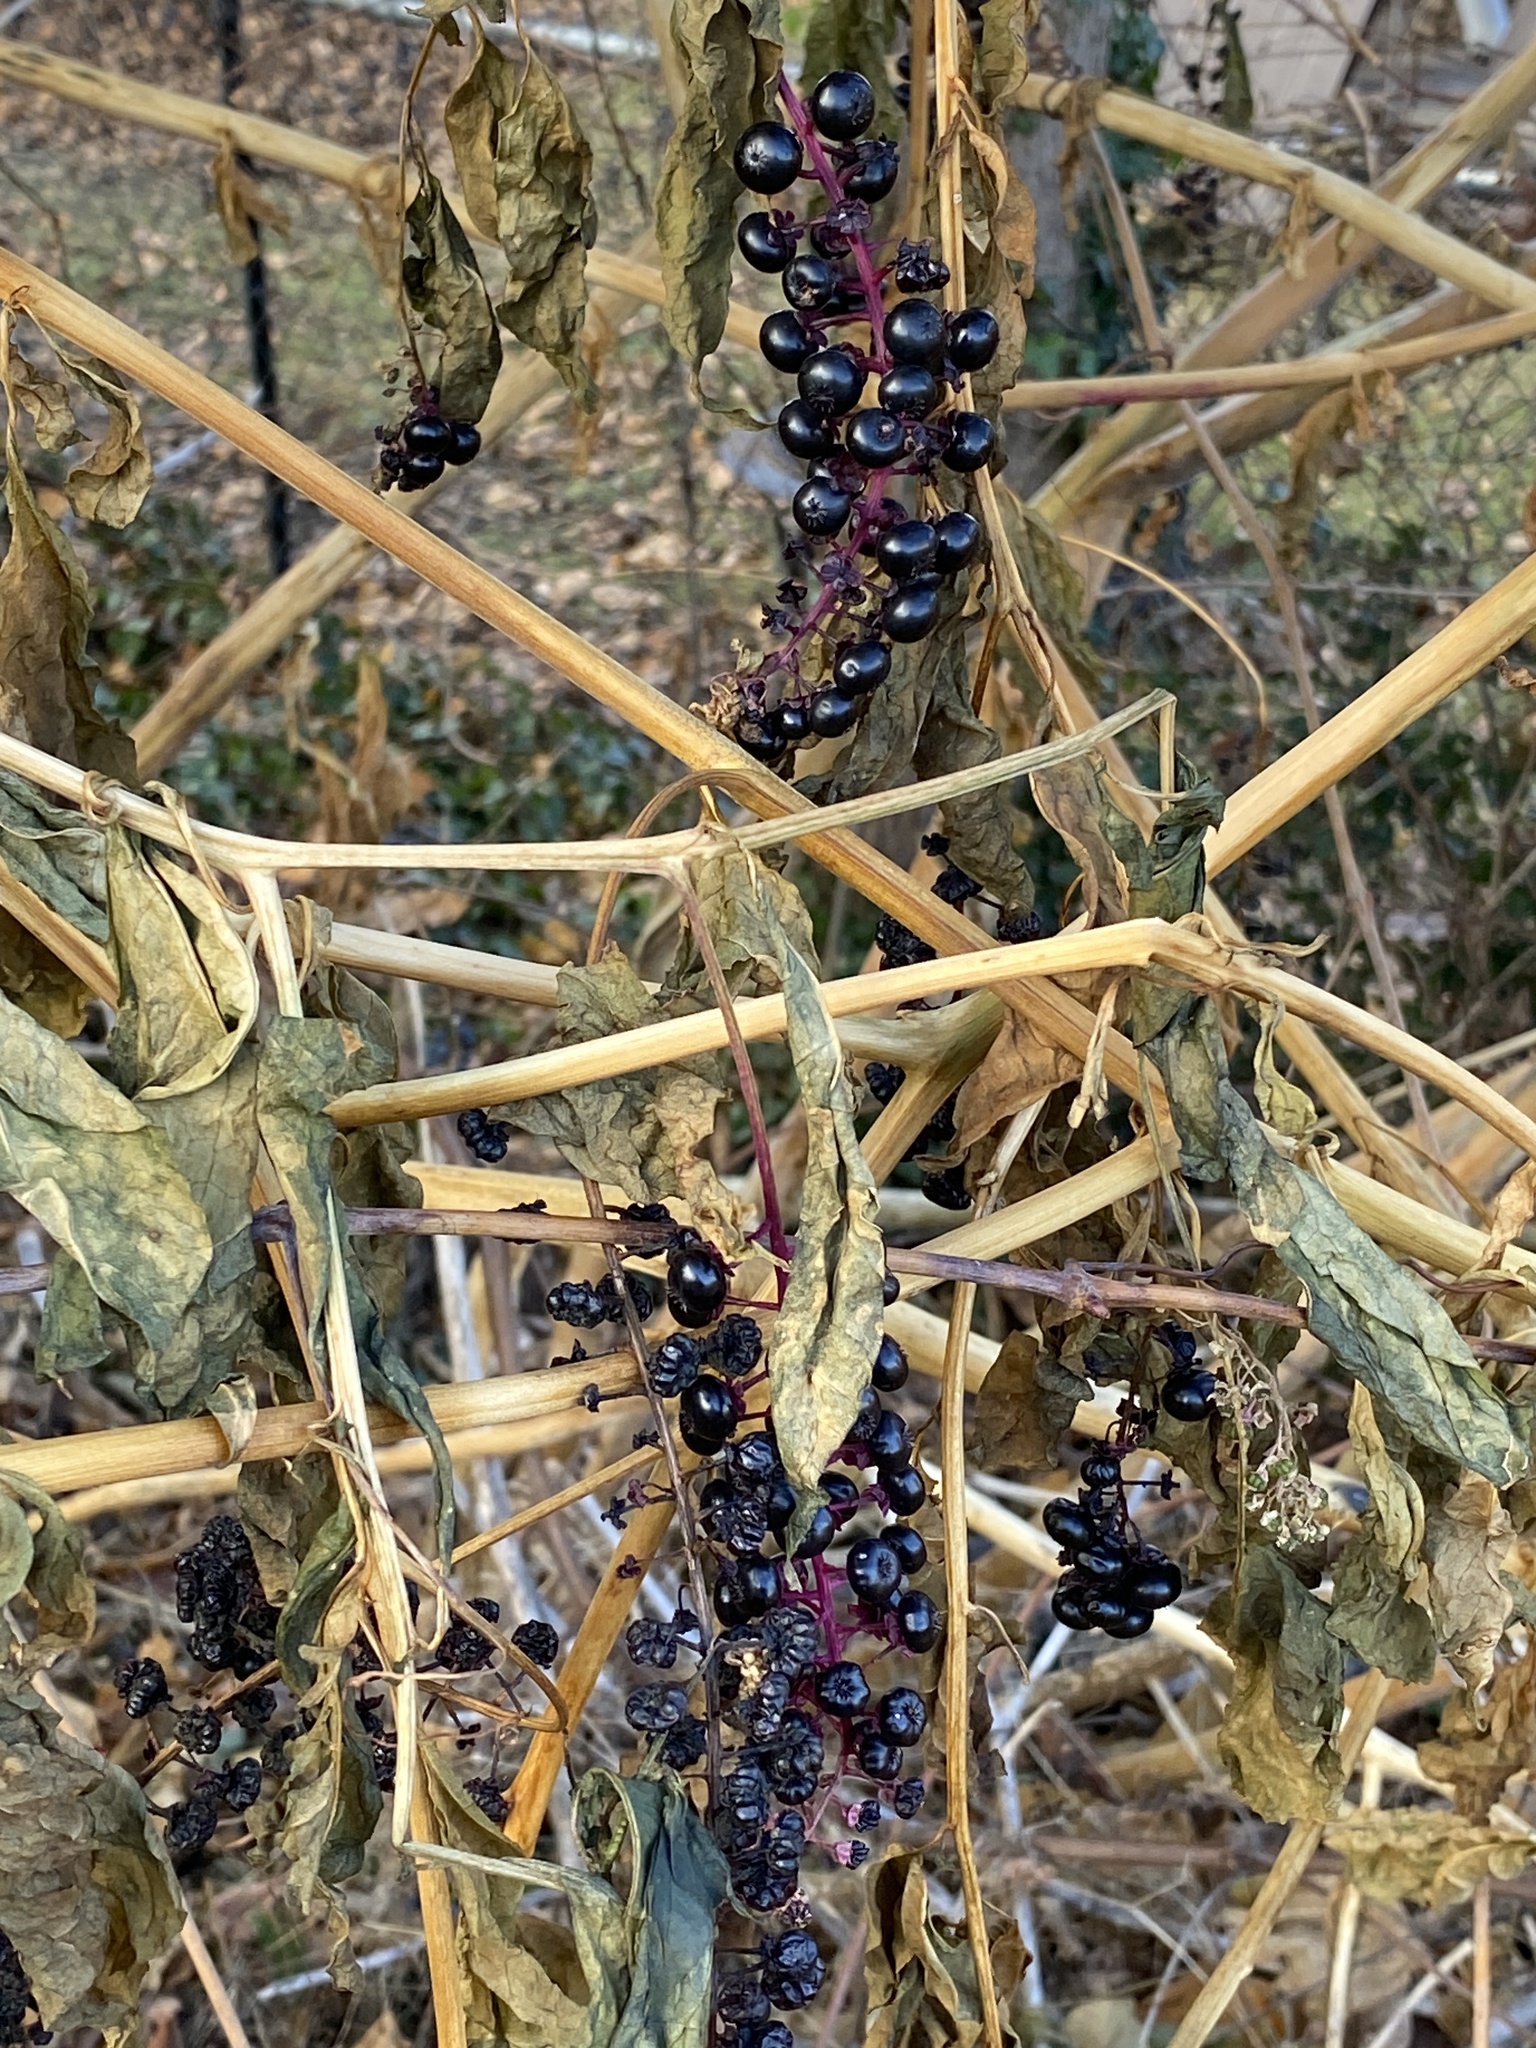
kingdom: Plantae
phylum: Tracheophyta
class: Magnoliopsida
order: Caryophyllales
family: Phytolaccaceae
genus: Phytolacca
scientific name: Phytolacca americana
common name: American pokeweed
